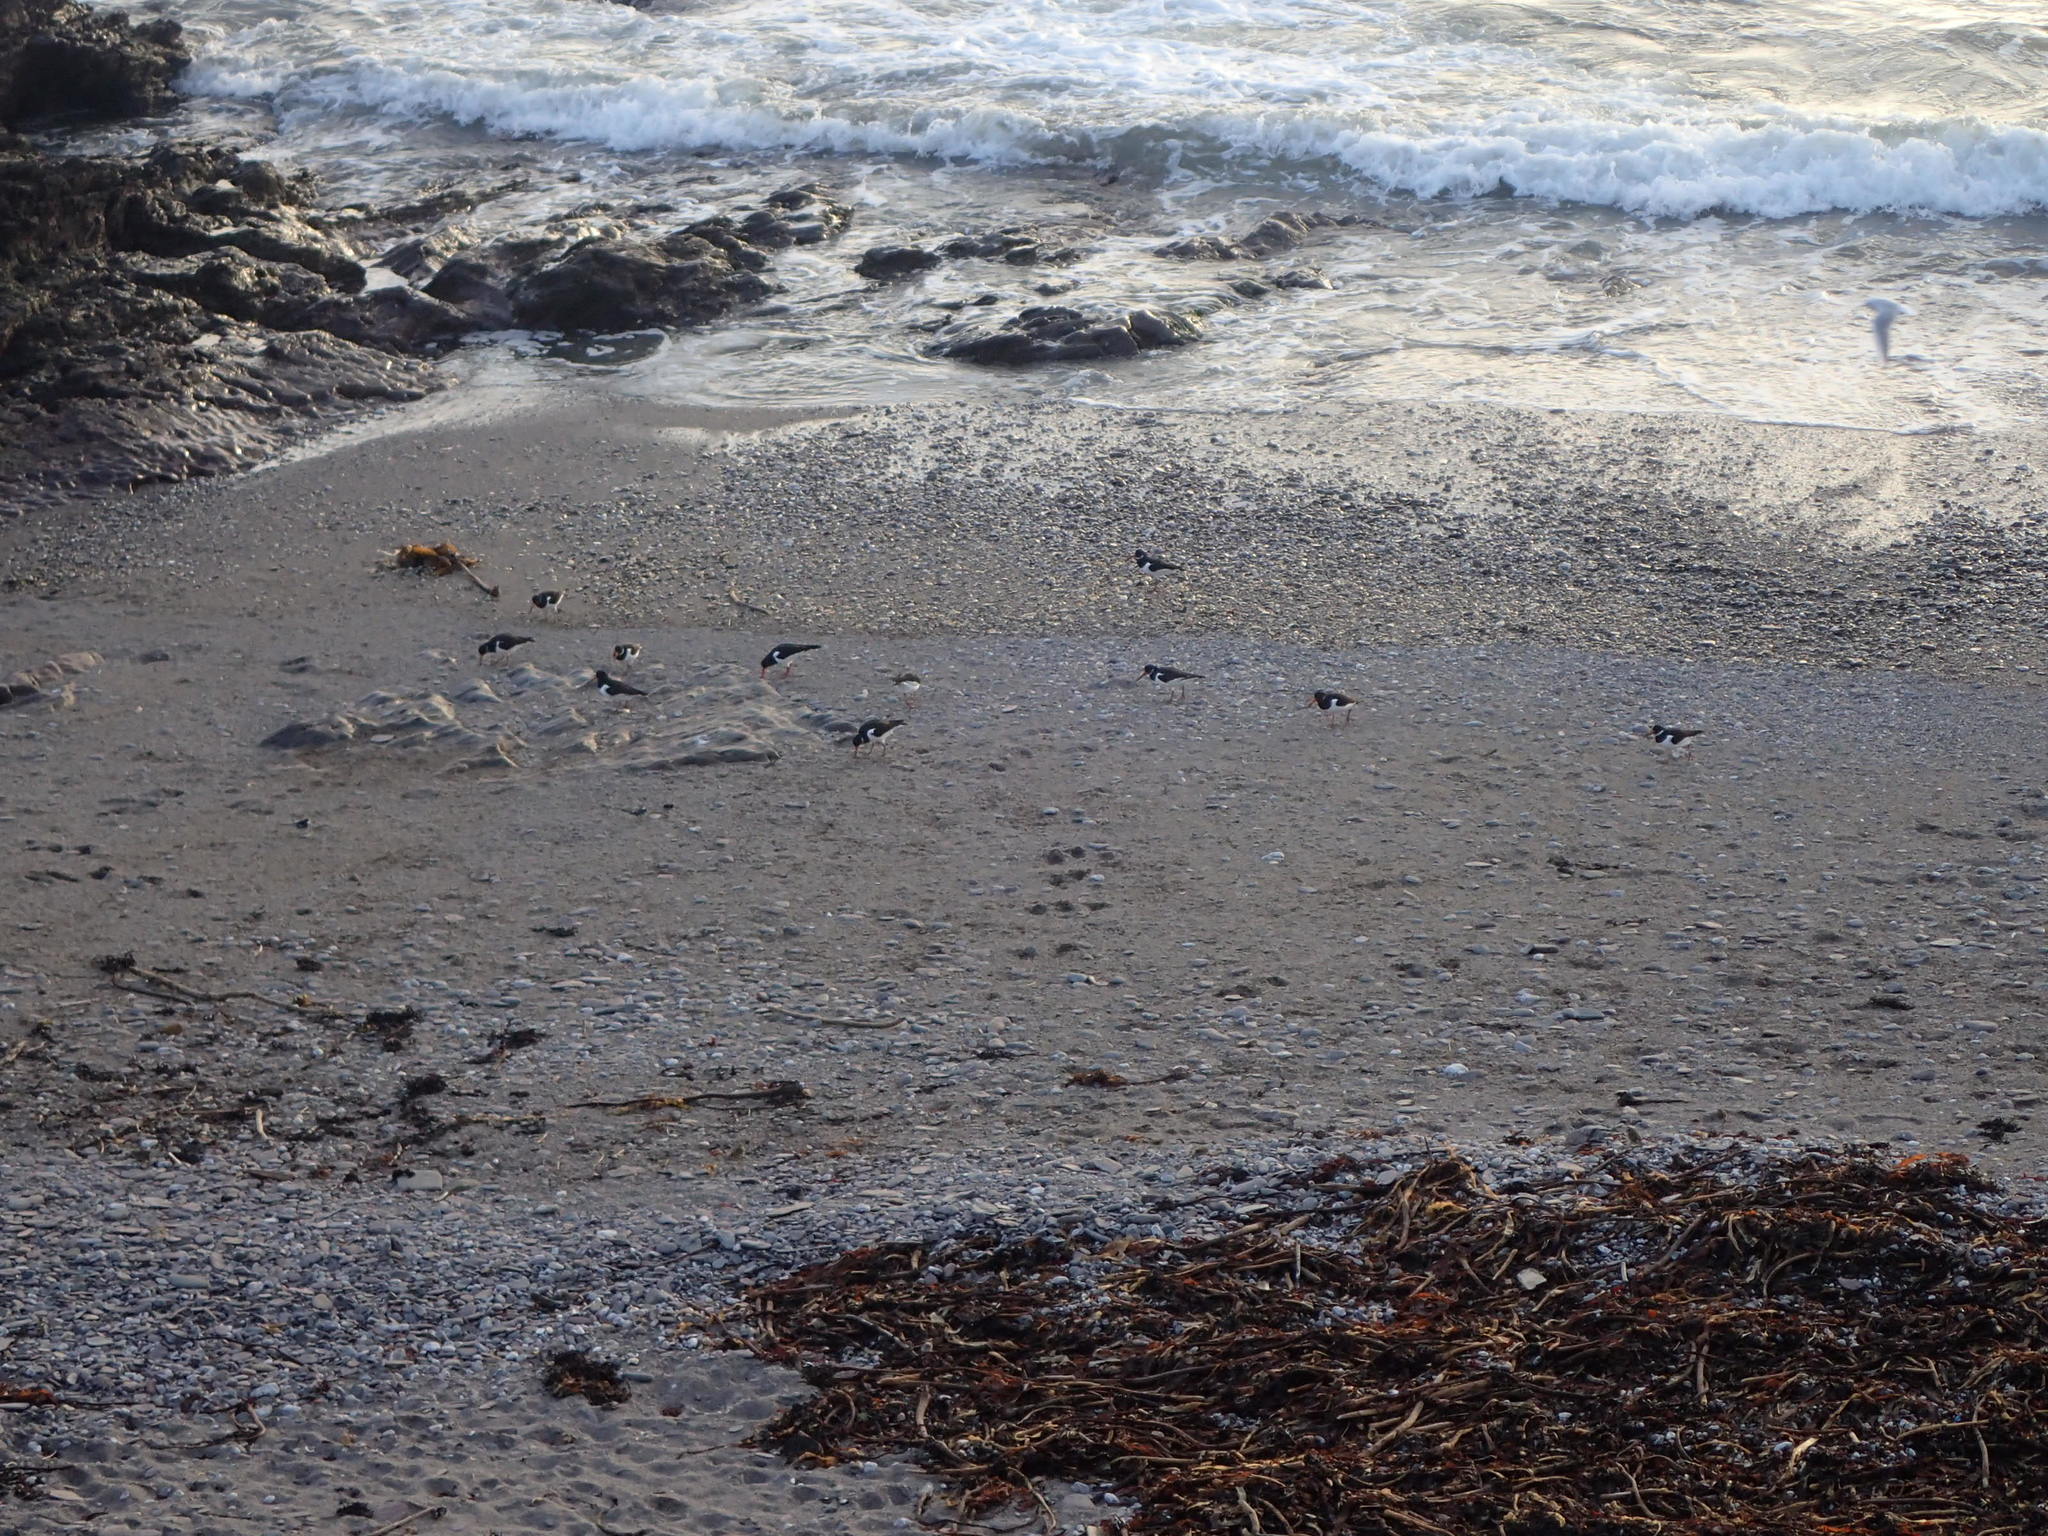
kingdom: Animalia
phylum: Chordata
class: Aves
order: Charadriiformes
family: Haematopodidae
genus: Haematopus
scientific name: Haematopus ostralegus
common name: Eurasian oystercatcher
